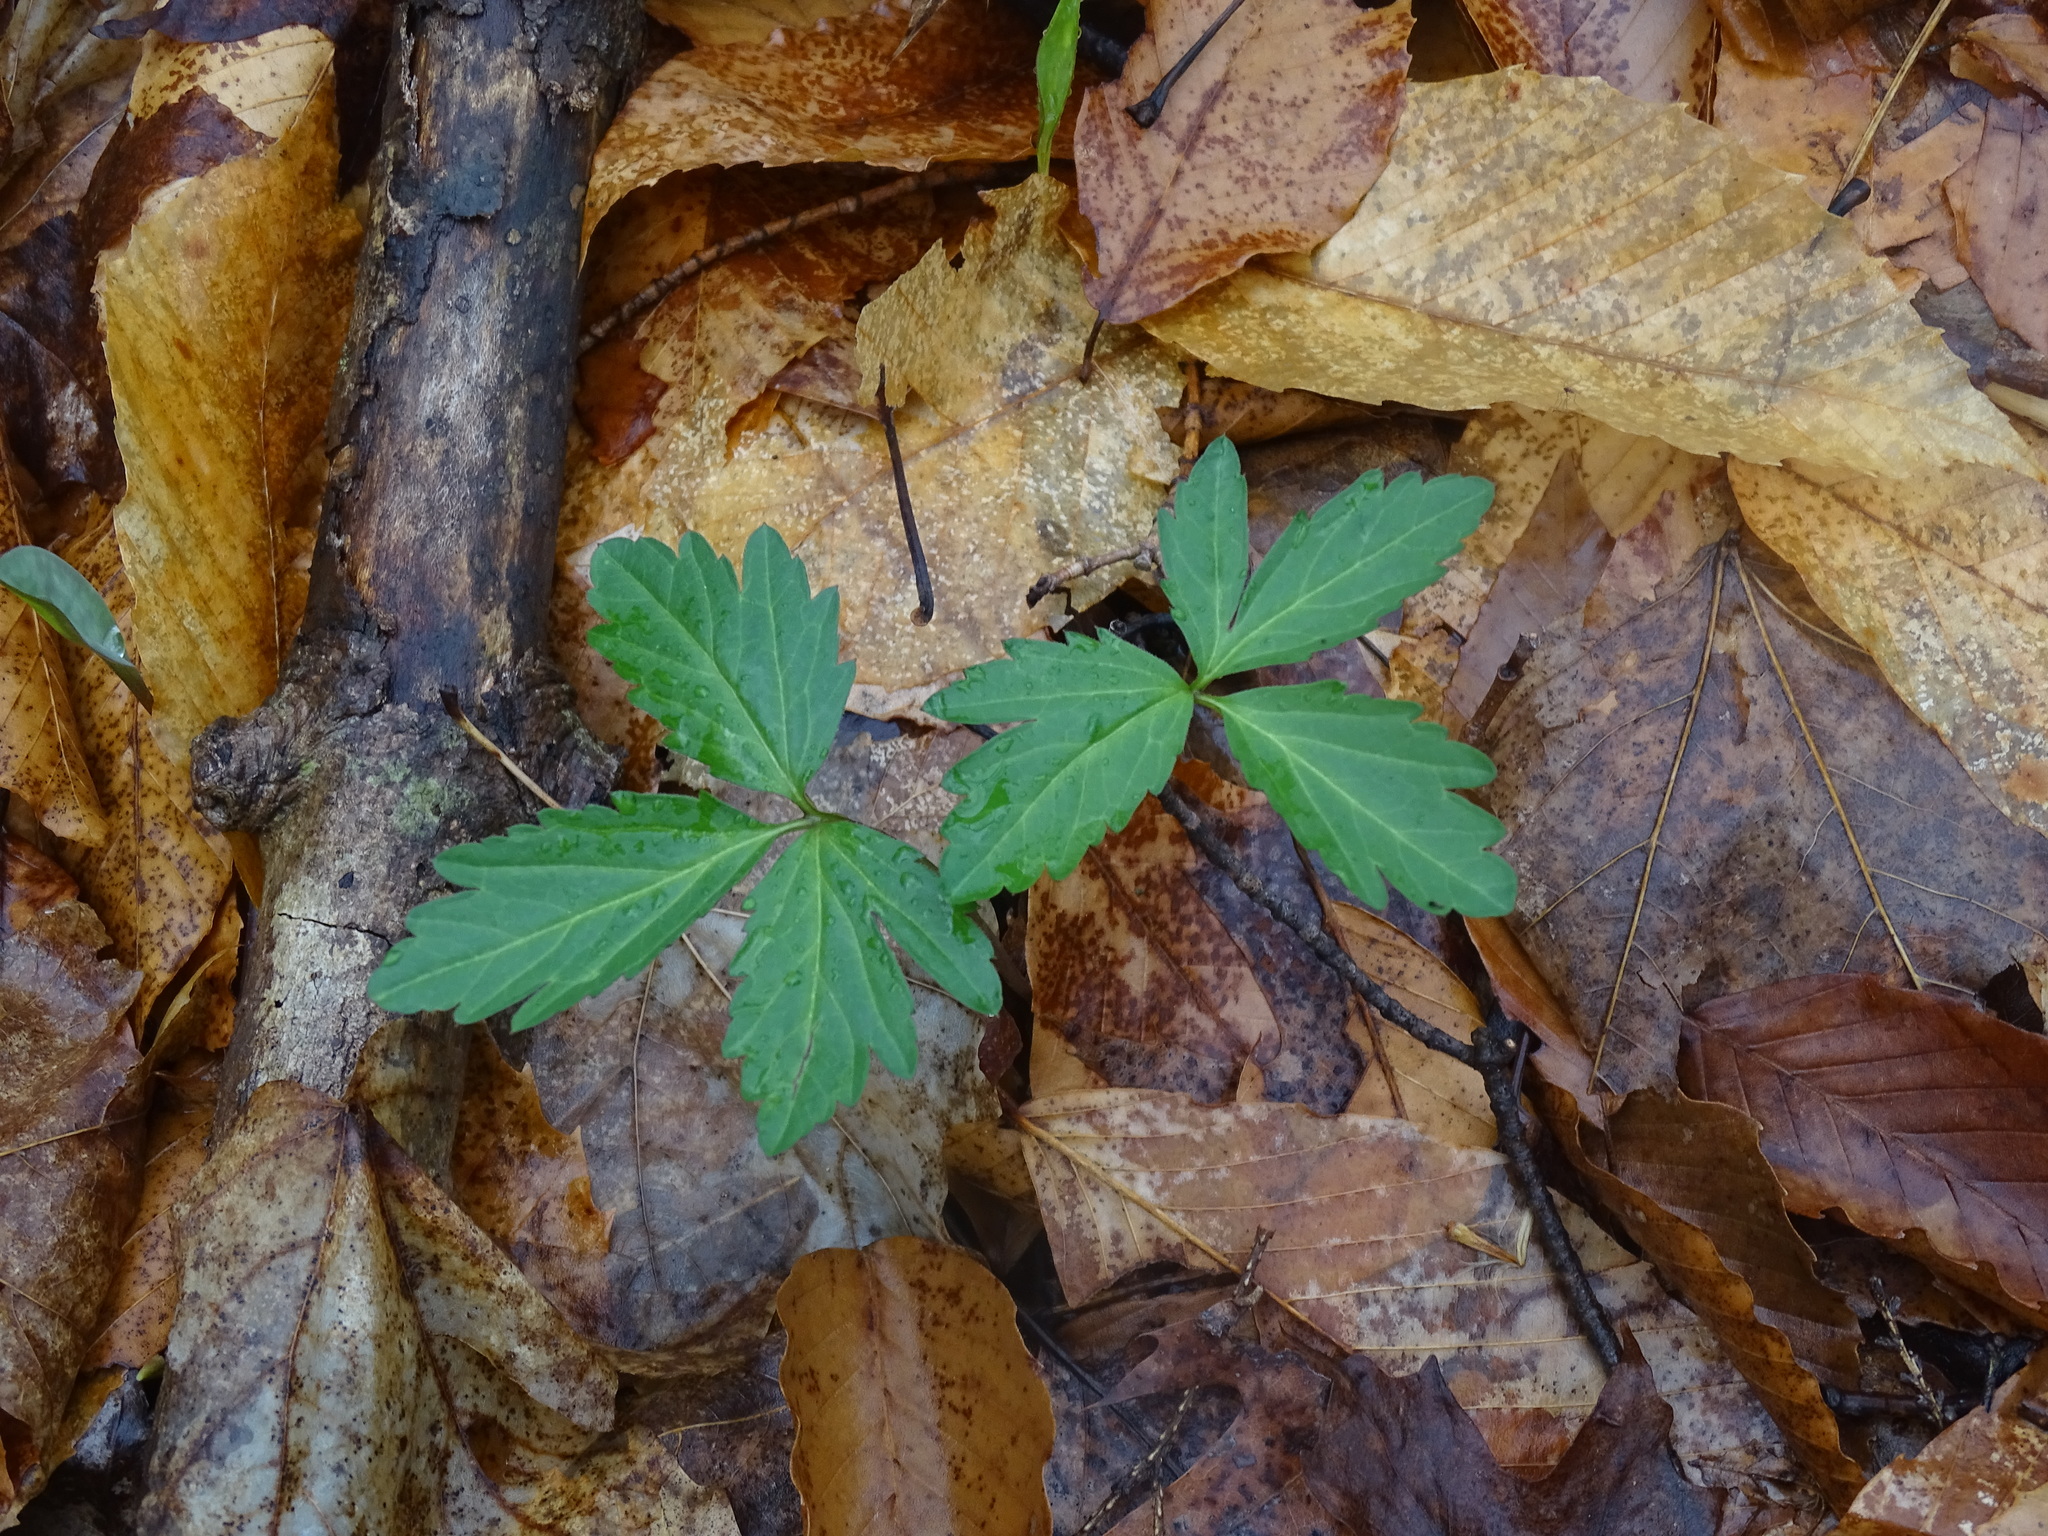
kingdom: Plantae
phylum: Tracheophyta
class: Magnoliopsida
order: Brassicales
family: Brassicaceae
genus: Cardamine
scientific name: Cardamine diphylla
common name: Broad-leaved toothwort
